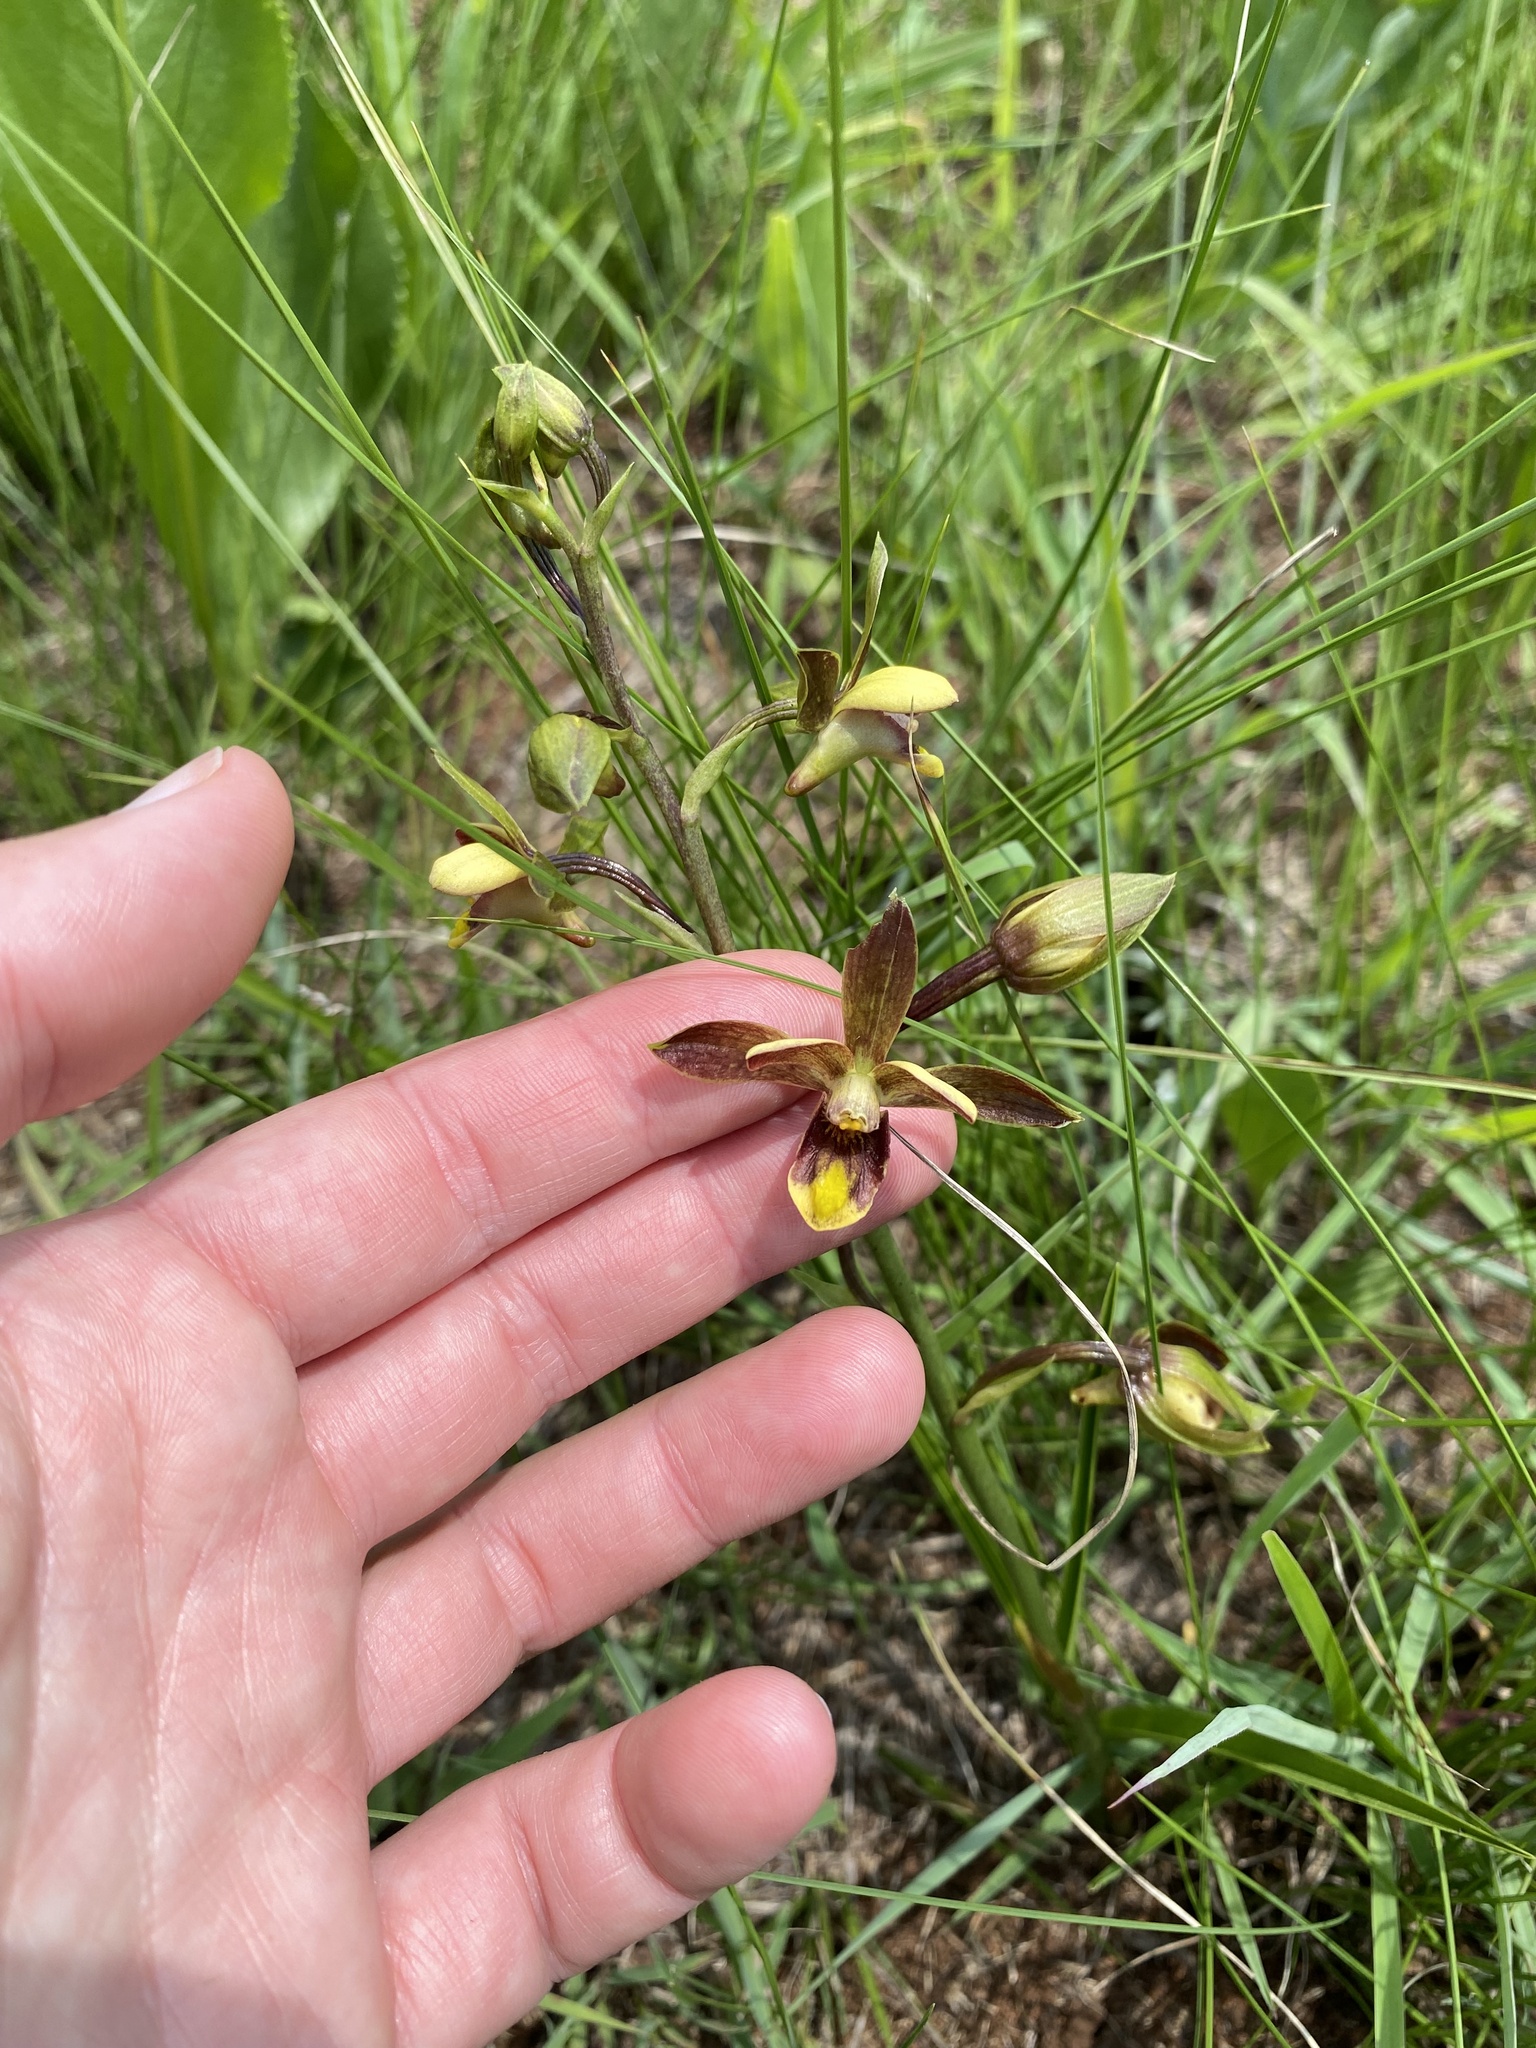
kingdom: Plantae
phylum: Tracheophyta
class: Liliopsida
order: Asparagales
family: Orchidaceae
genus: Eulophia
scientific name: Eulophia parviflora
